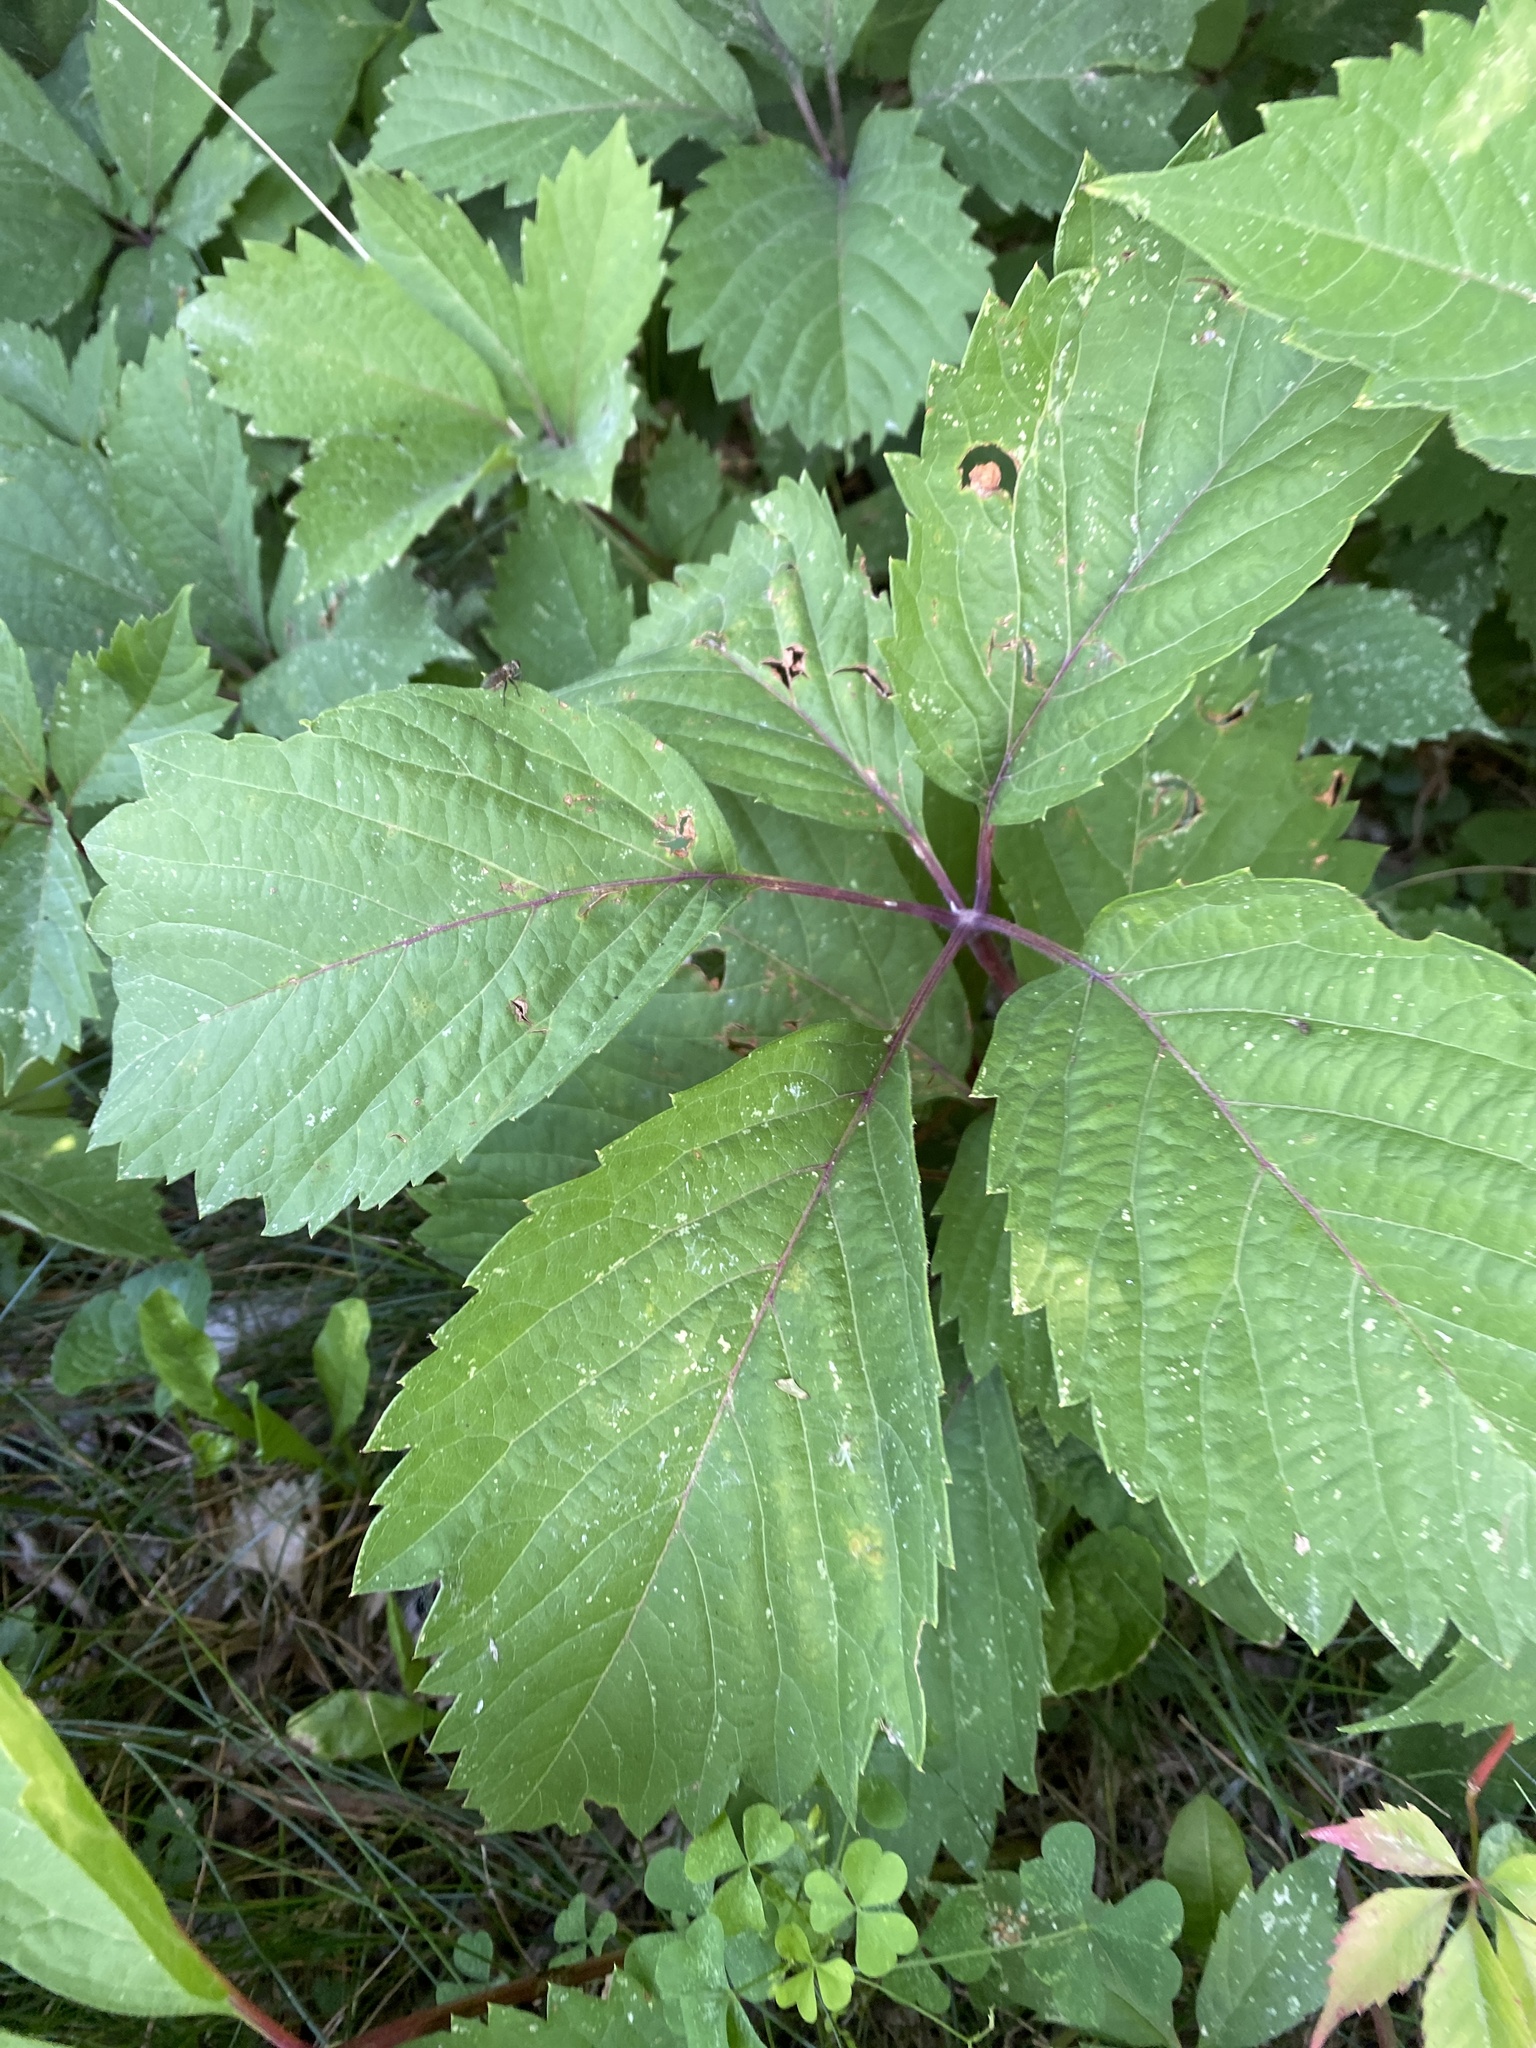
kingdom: Plantae
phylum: Tracheophyta
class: Magnoliopsida
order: Vitales
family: Vitaceae
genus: Parthenocissus
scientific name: Parthenocissus inserta
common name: False virginia-creeper
